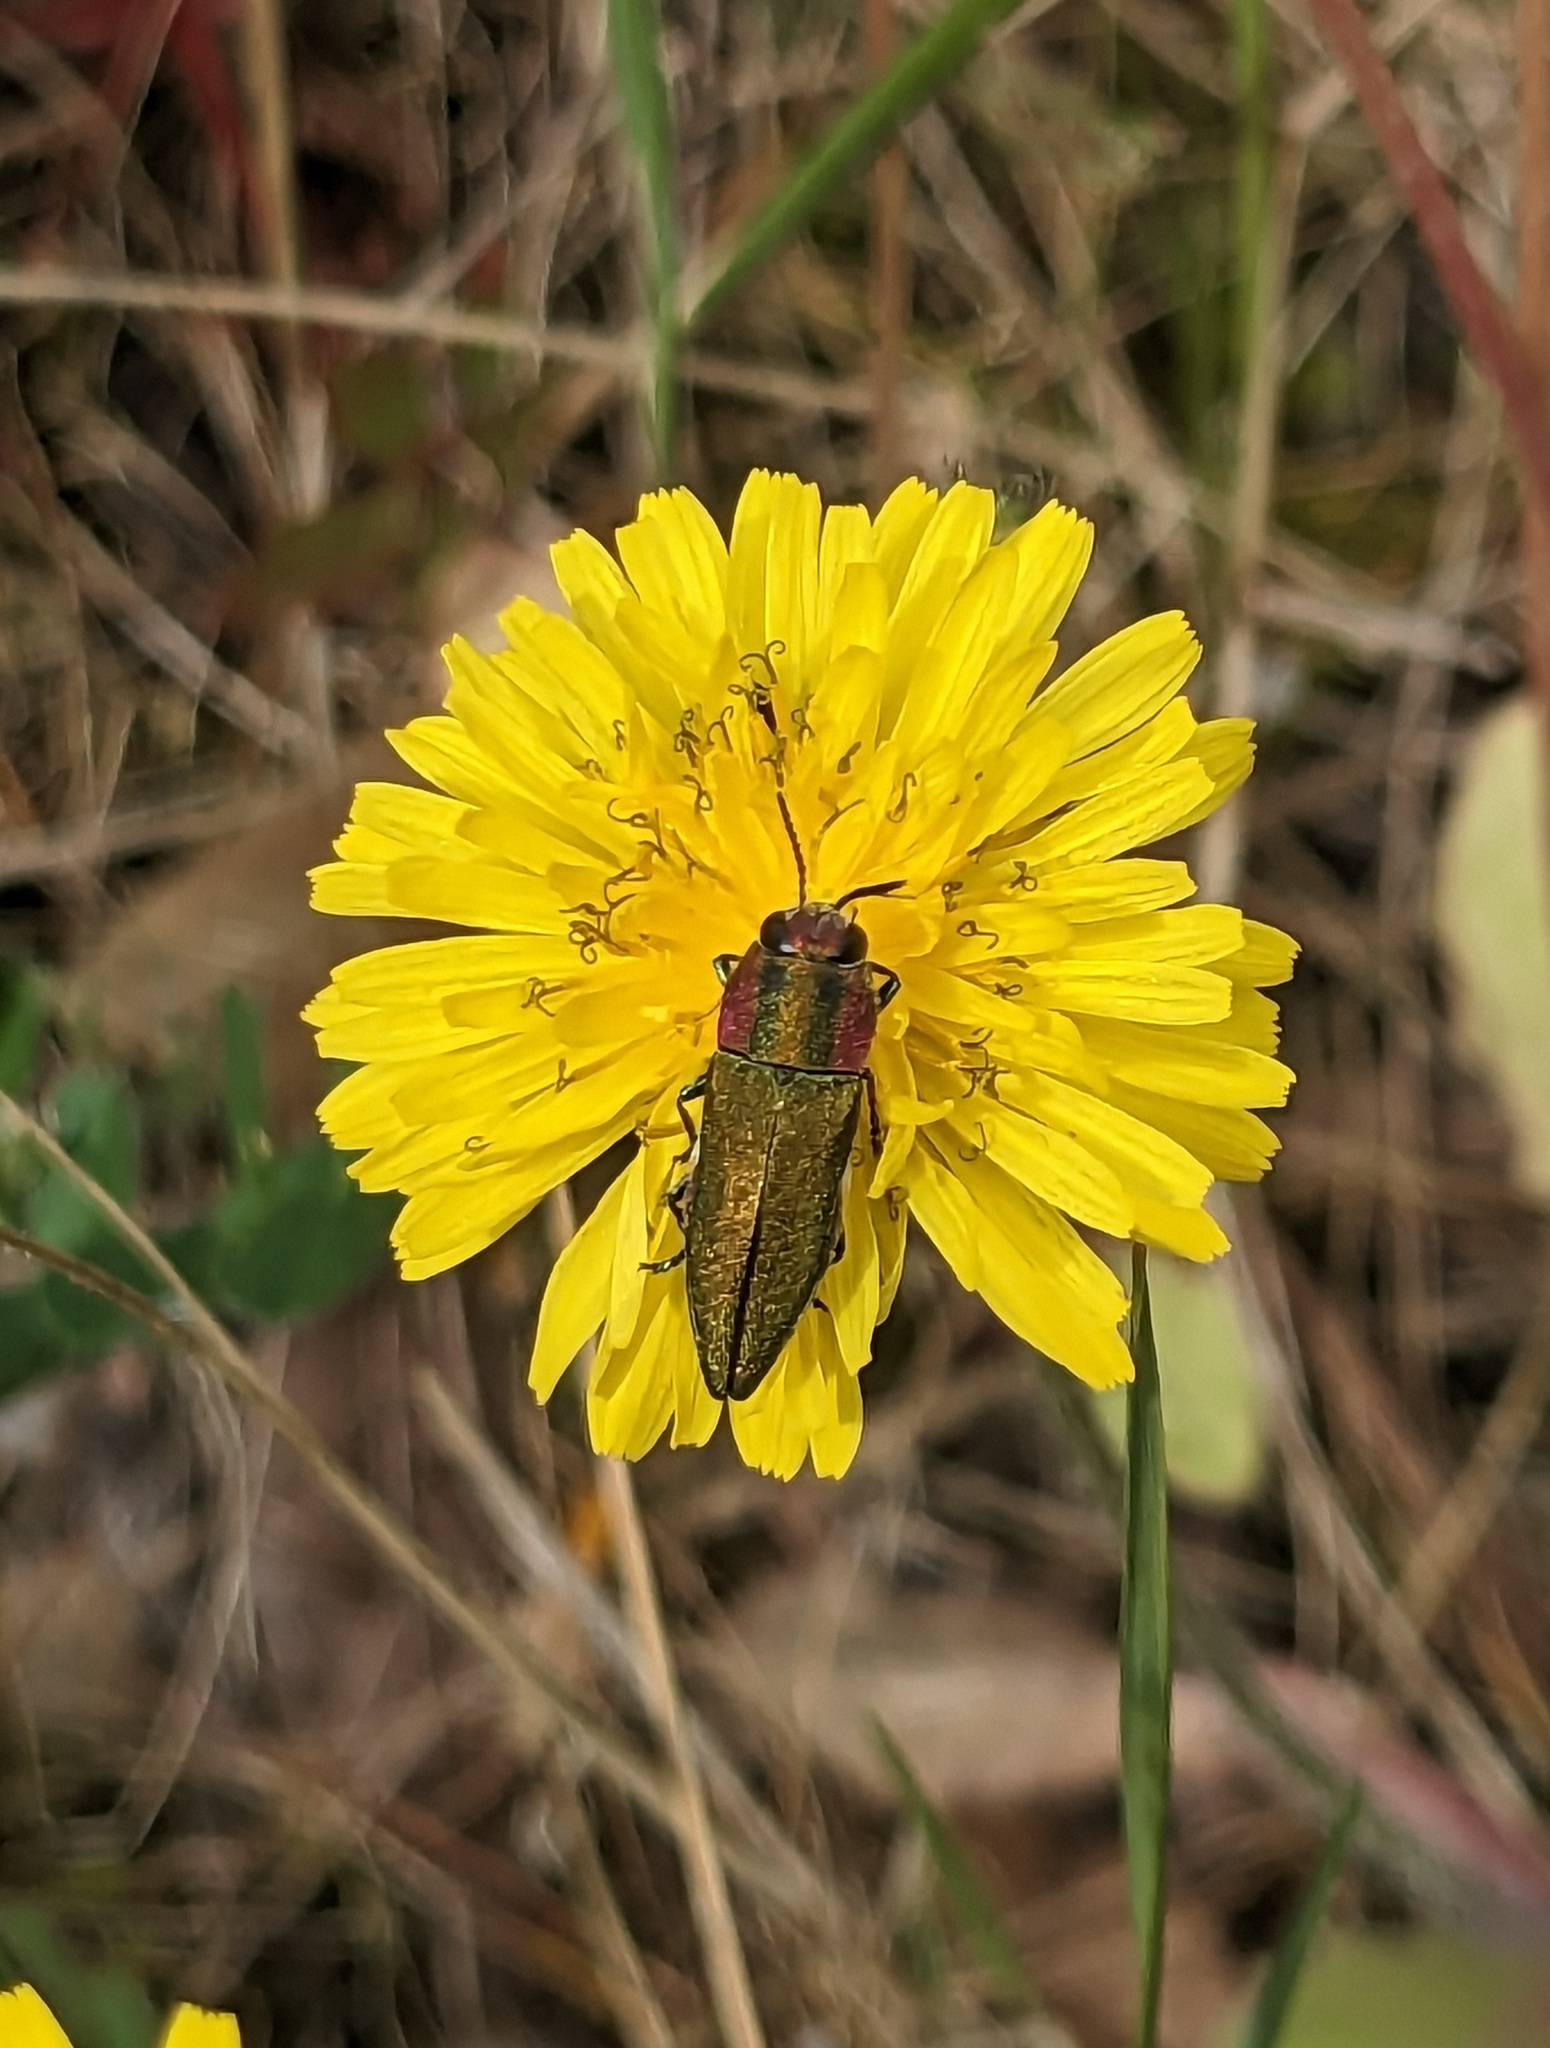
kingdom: Animalia
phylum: Arthropoda
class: Insecta
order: Coleoptera
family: Buprestidae
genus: Anthaxia
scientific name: Anthaxia hungarica
